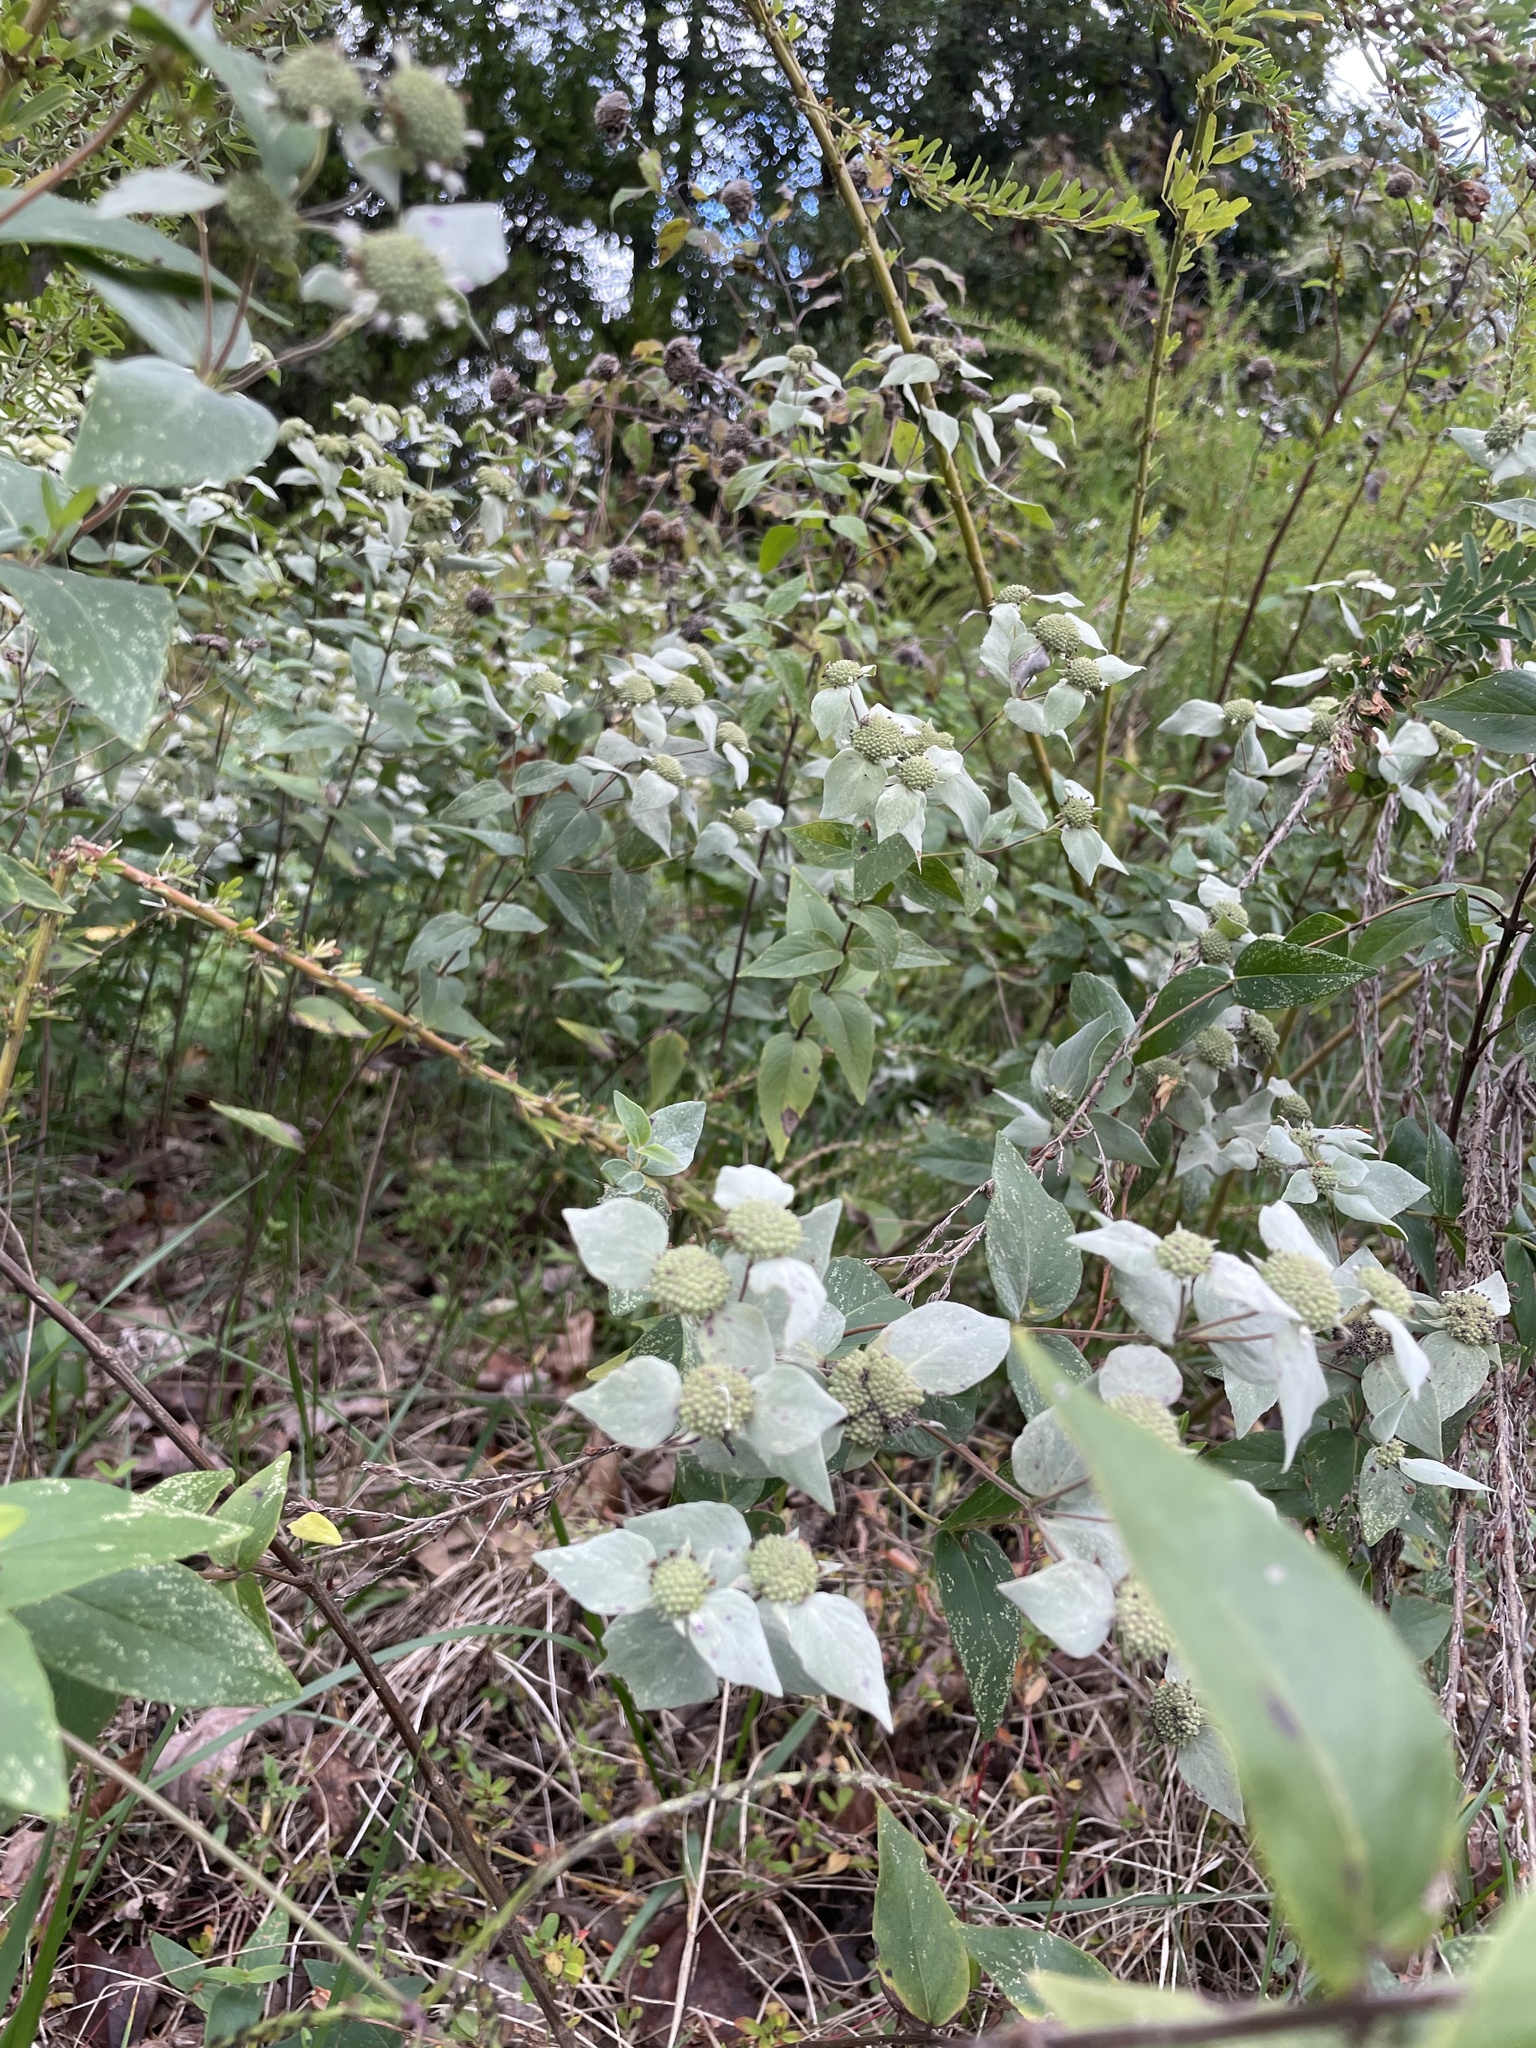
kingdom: Plantae
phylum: Tracheophyta
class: Magnoliopsida
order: Lamiales
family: Lamiaceae
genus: Pycnanthemum
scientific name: Pycnanthemum muticum
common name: Blunt mountain-mint
